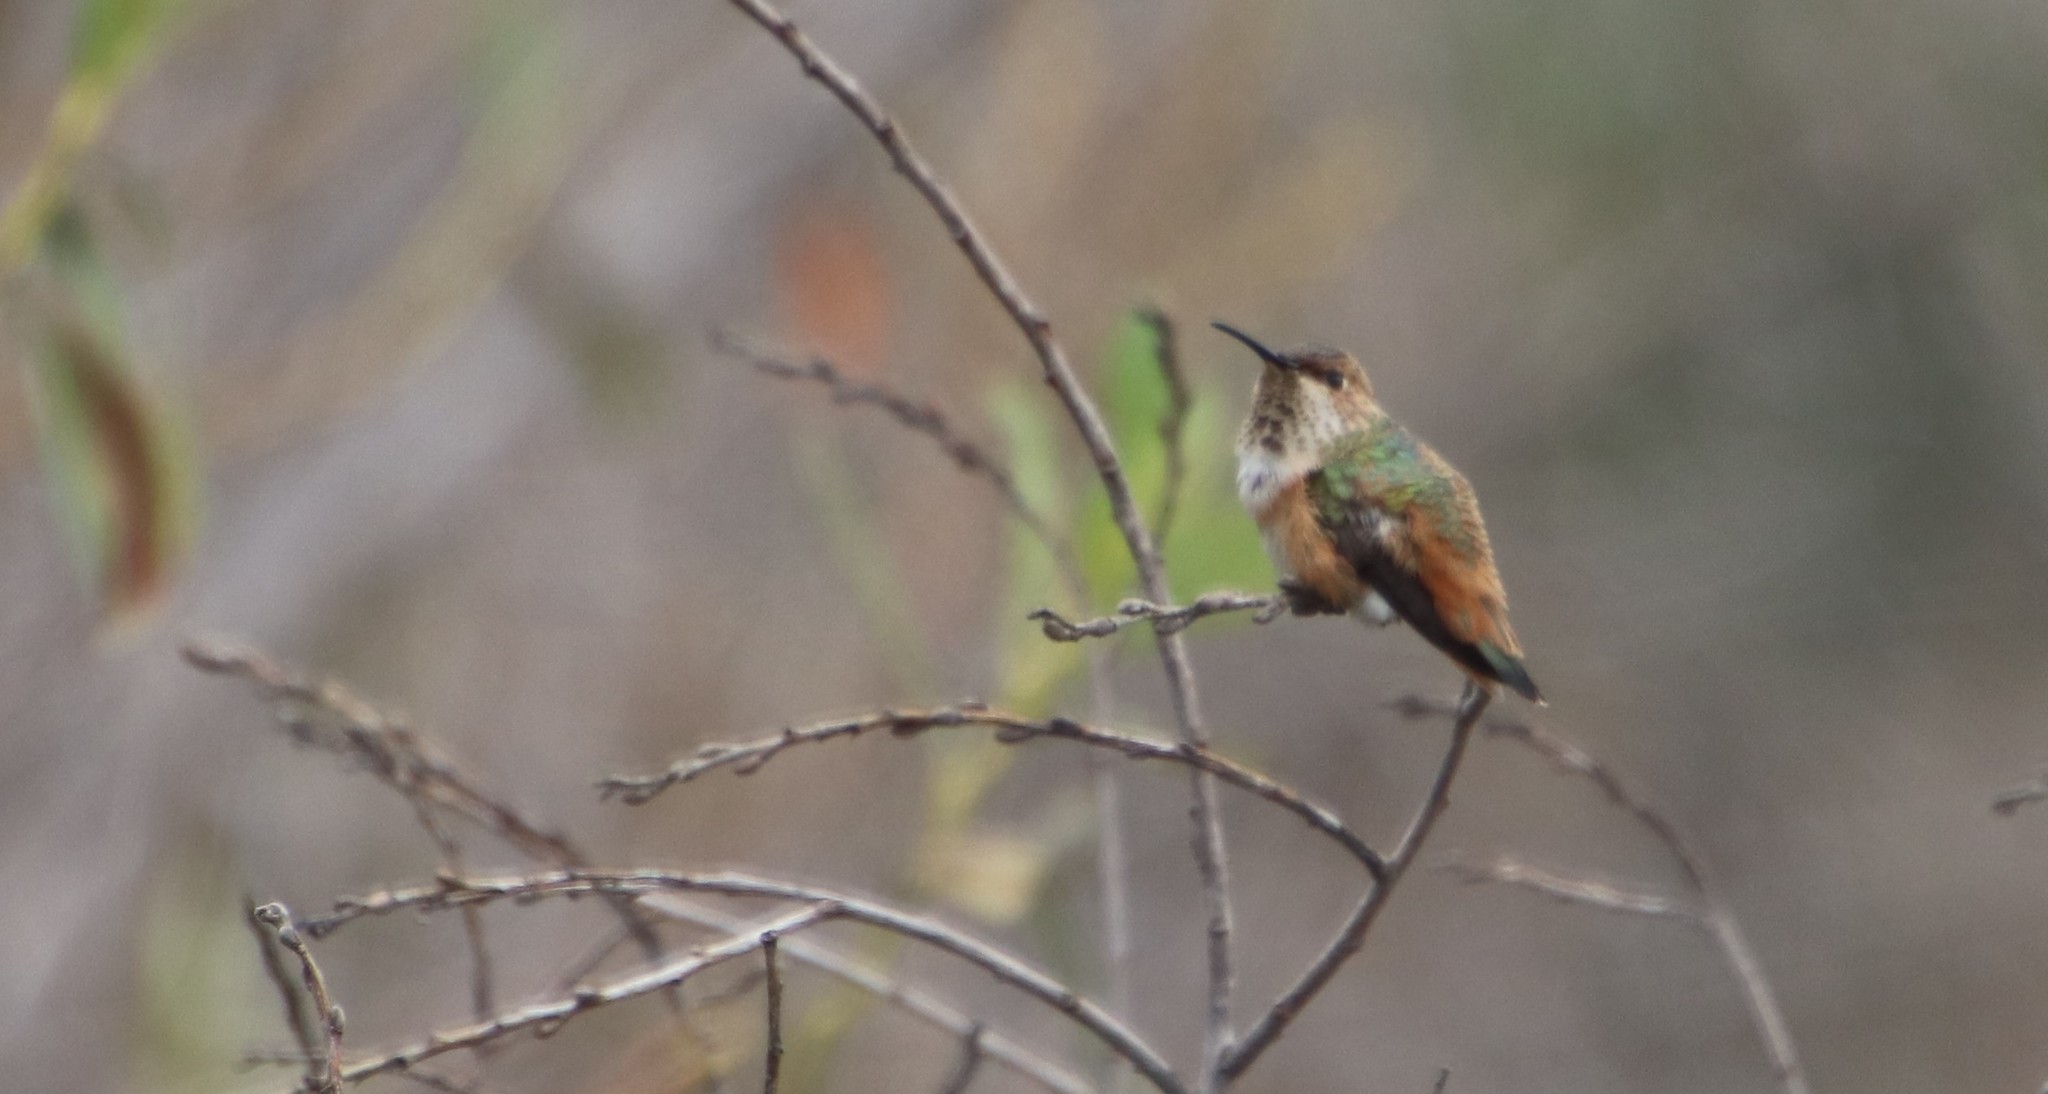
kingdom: Animalia
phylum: Chordata
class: Aves
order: Apodiformes
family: Trochilidae
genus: Selasphorus
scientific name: Selasphorus
